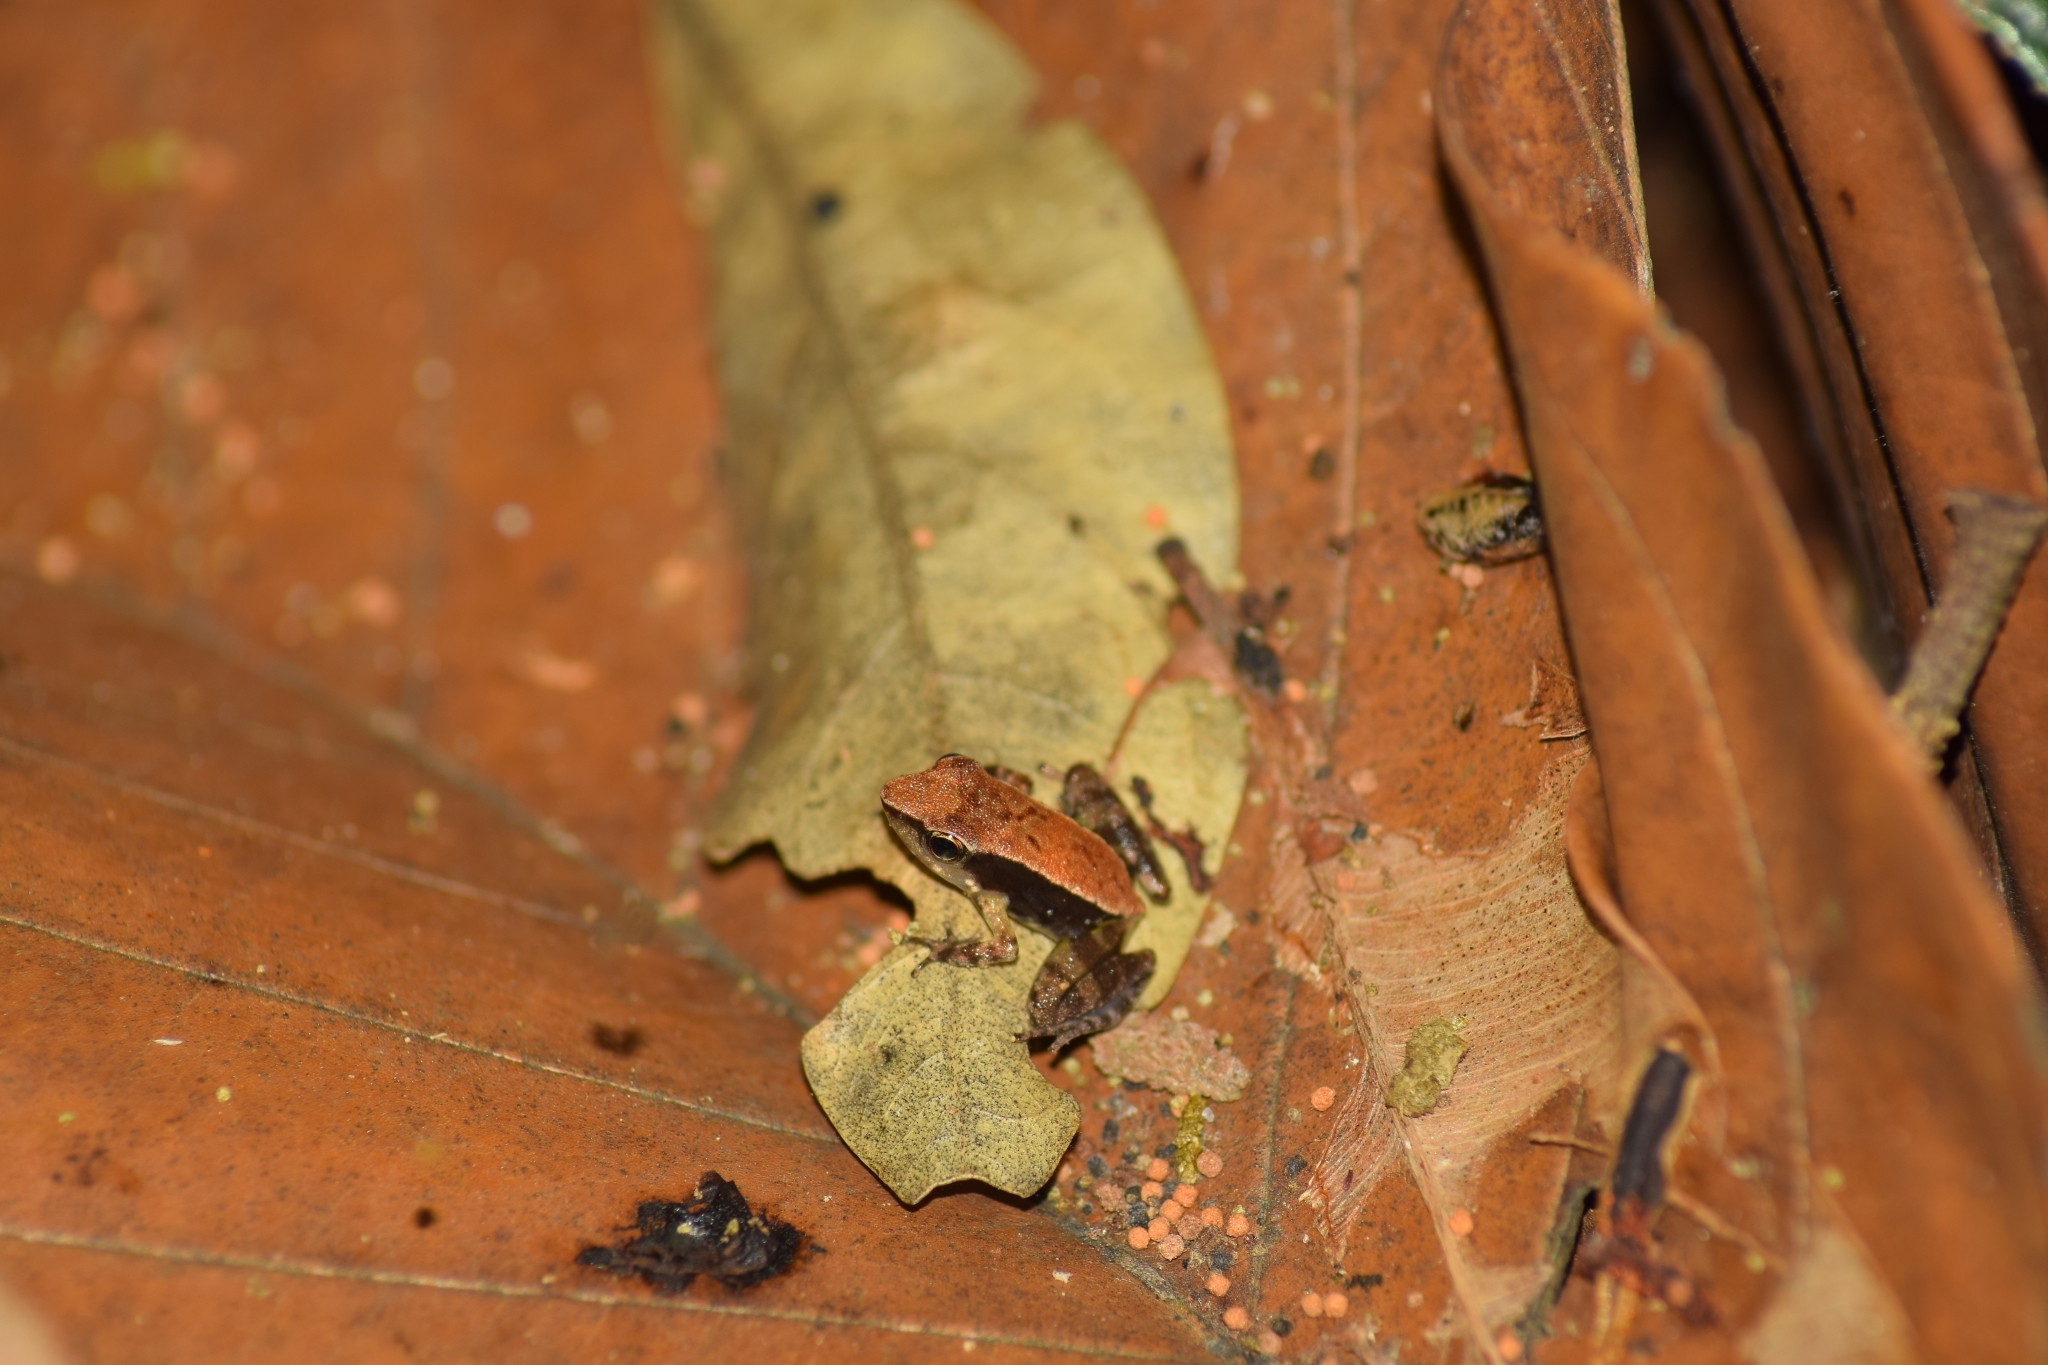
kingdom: Animalia
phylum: Chordata
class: Amphibia
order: Anura
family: Micrixalidae
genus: Micrixalus
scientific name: Micrixalus herrei
